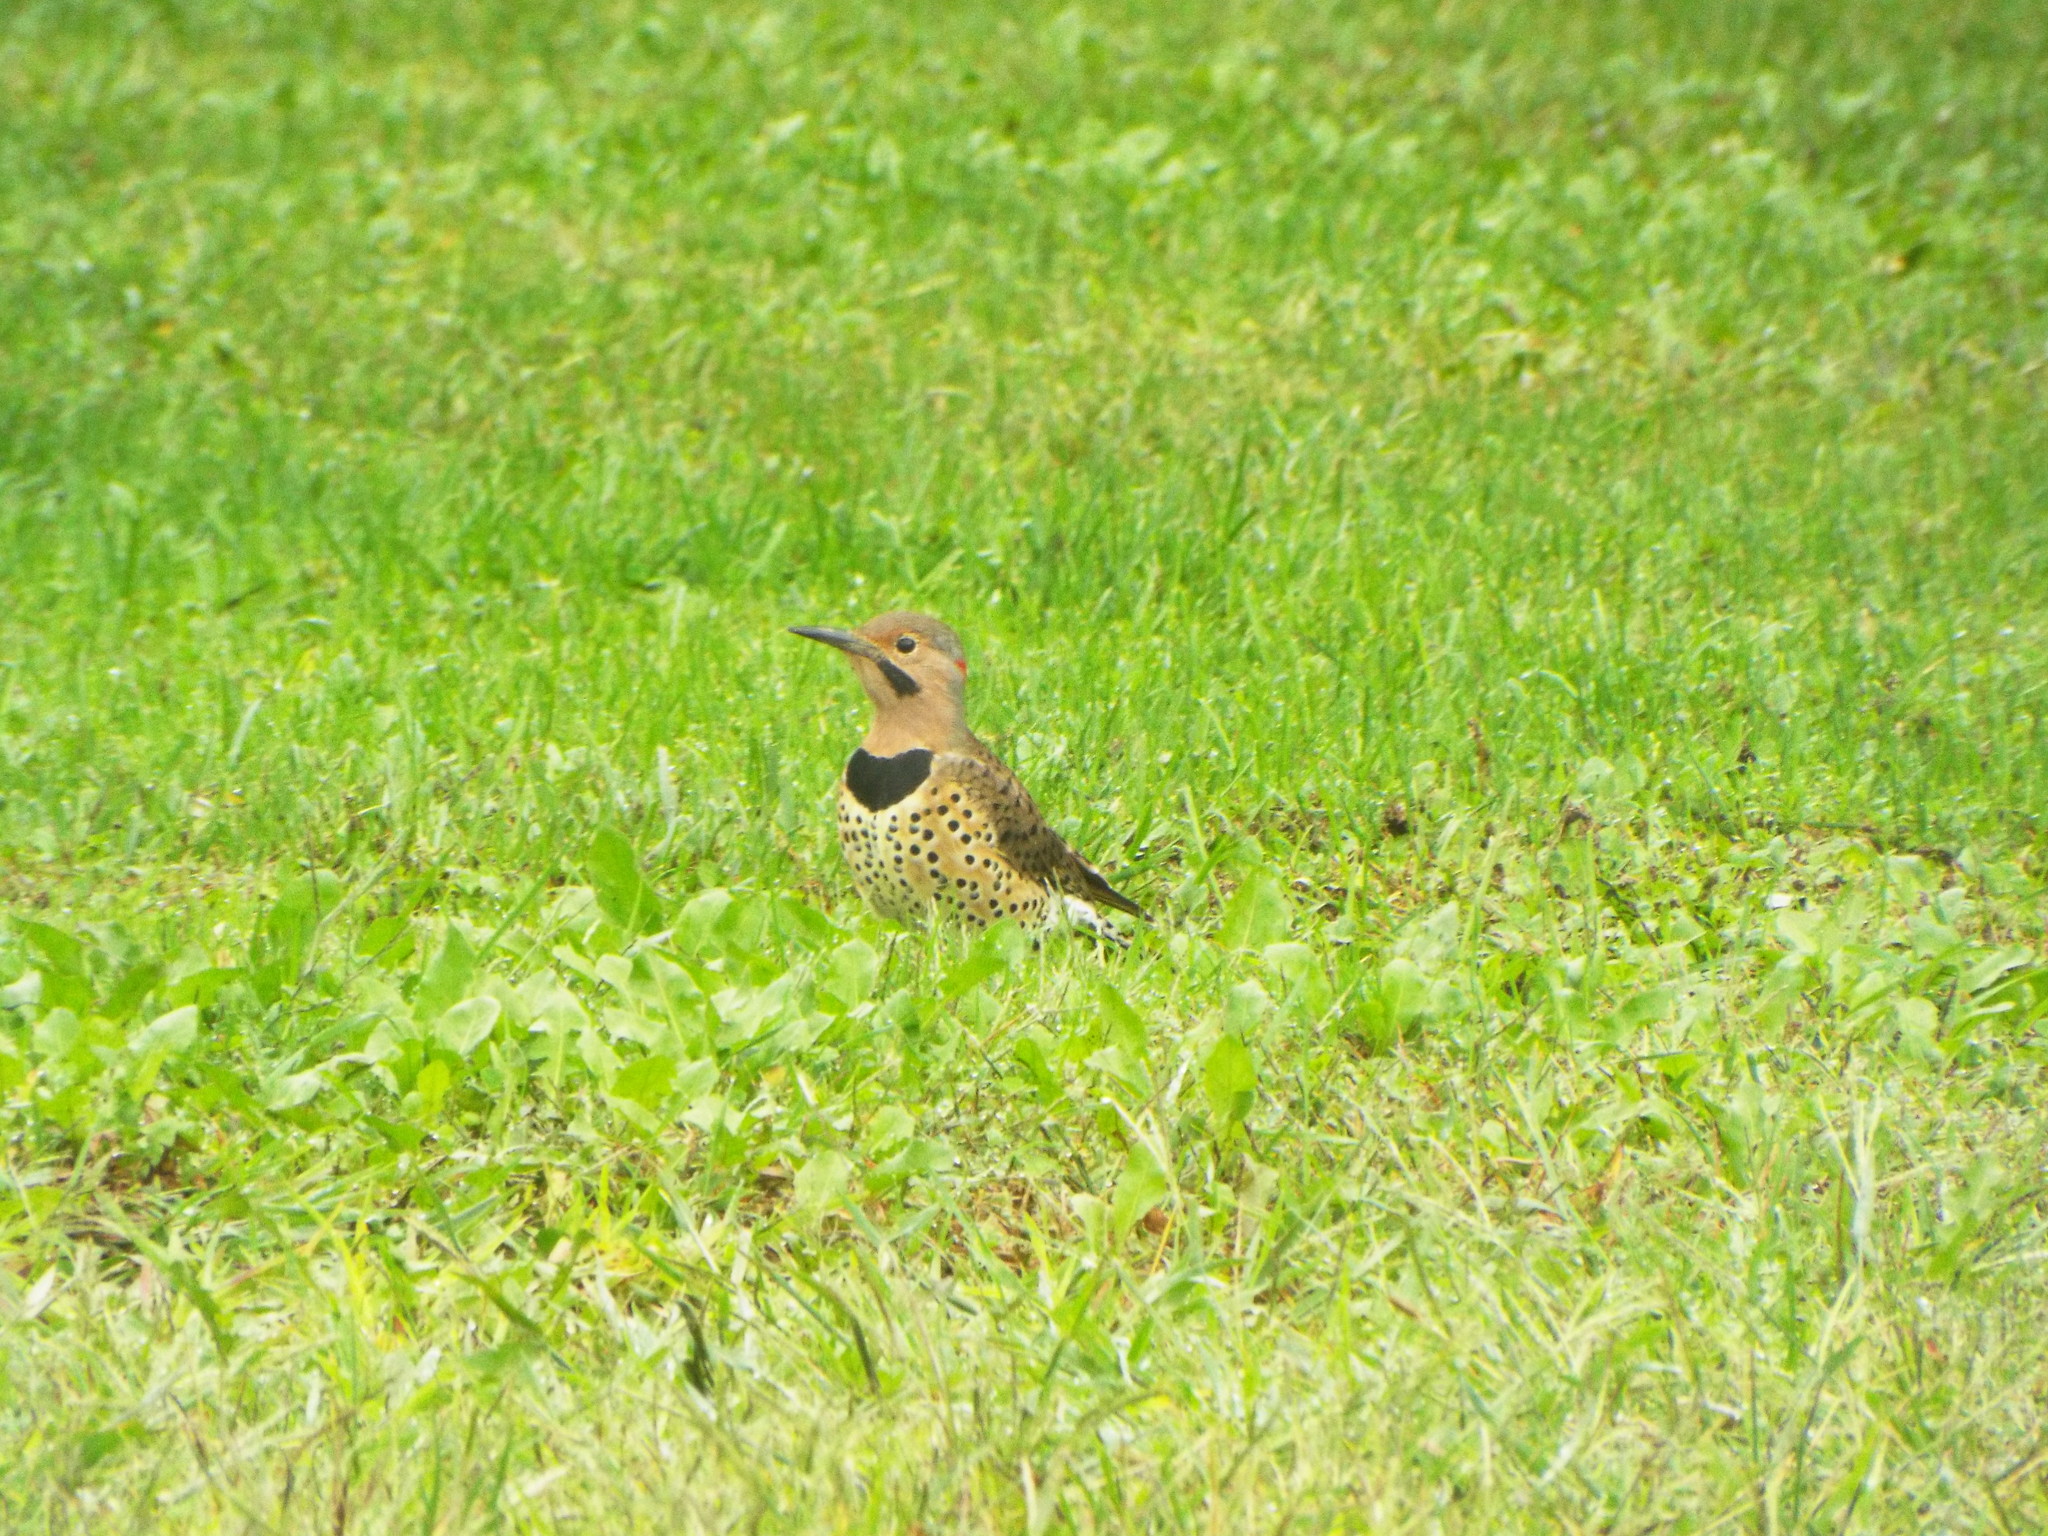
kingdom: Animalia
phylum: Chordata
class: Aves
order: Piciformes
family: Picidae
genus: Colaptes
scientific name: Colaptes auratus
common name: Northern flicker
